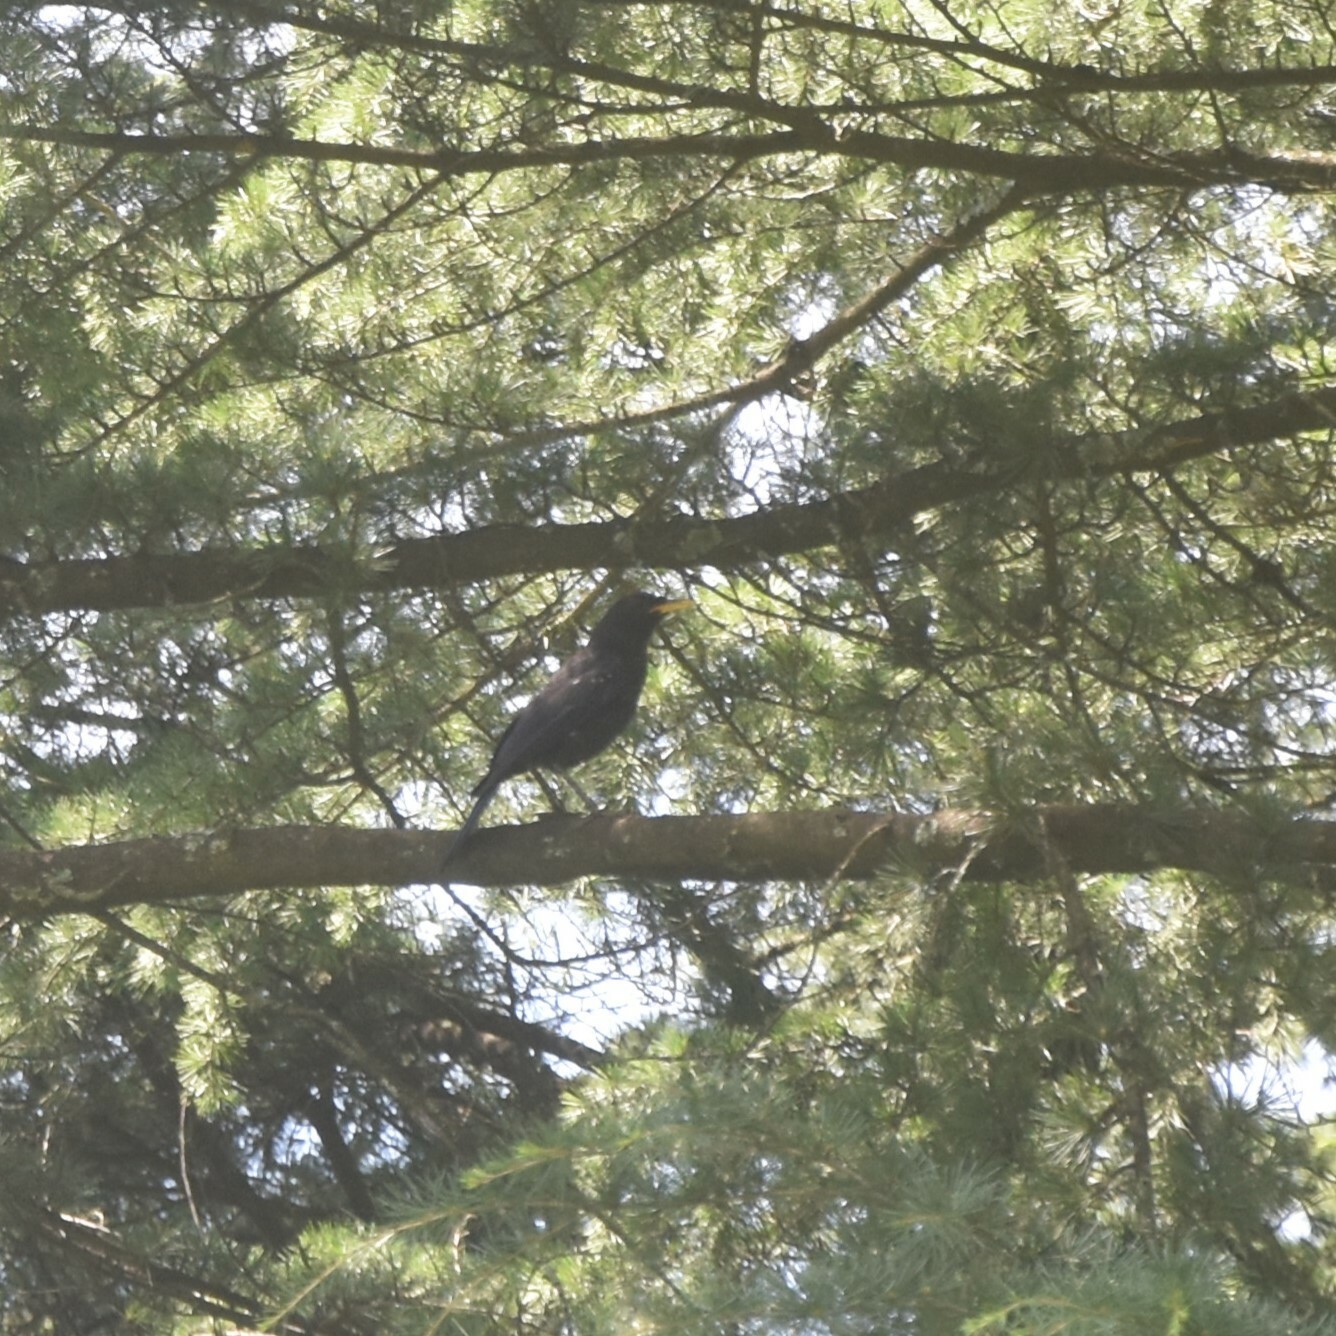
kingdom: Animalia
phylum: Chordata
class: Aves
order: Passeriformes
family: Muscicapidae
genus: Myophonus
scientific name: Myophonus caeruleus
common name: Blue whistling-thrush
